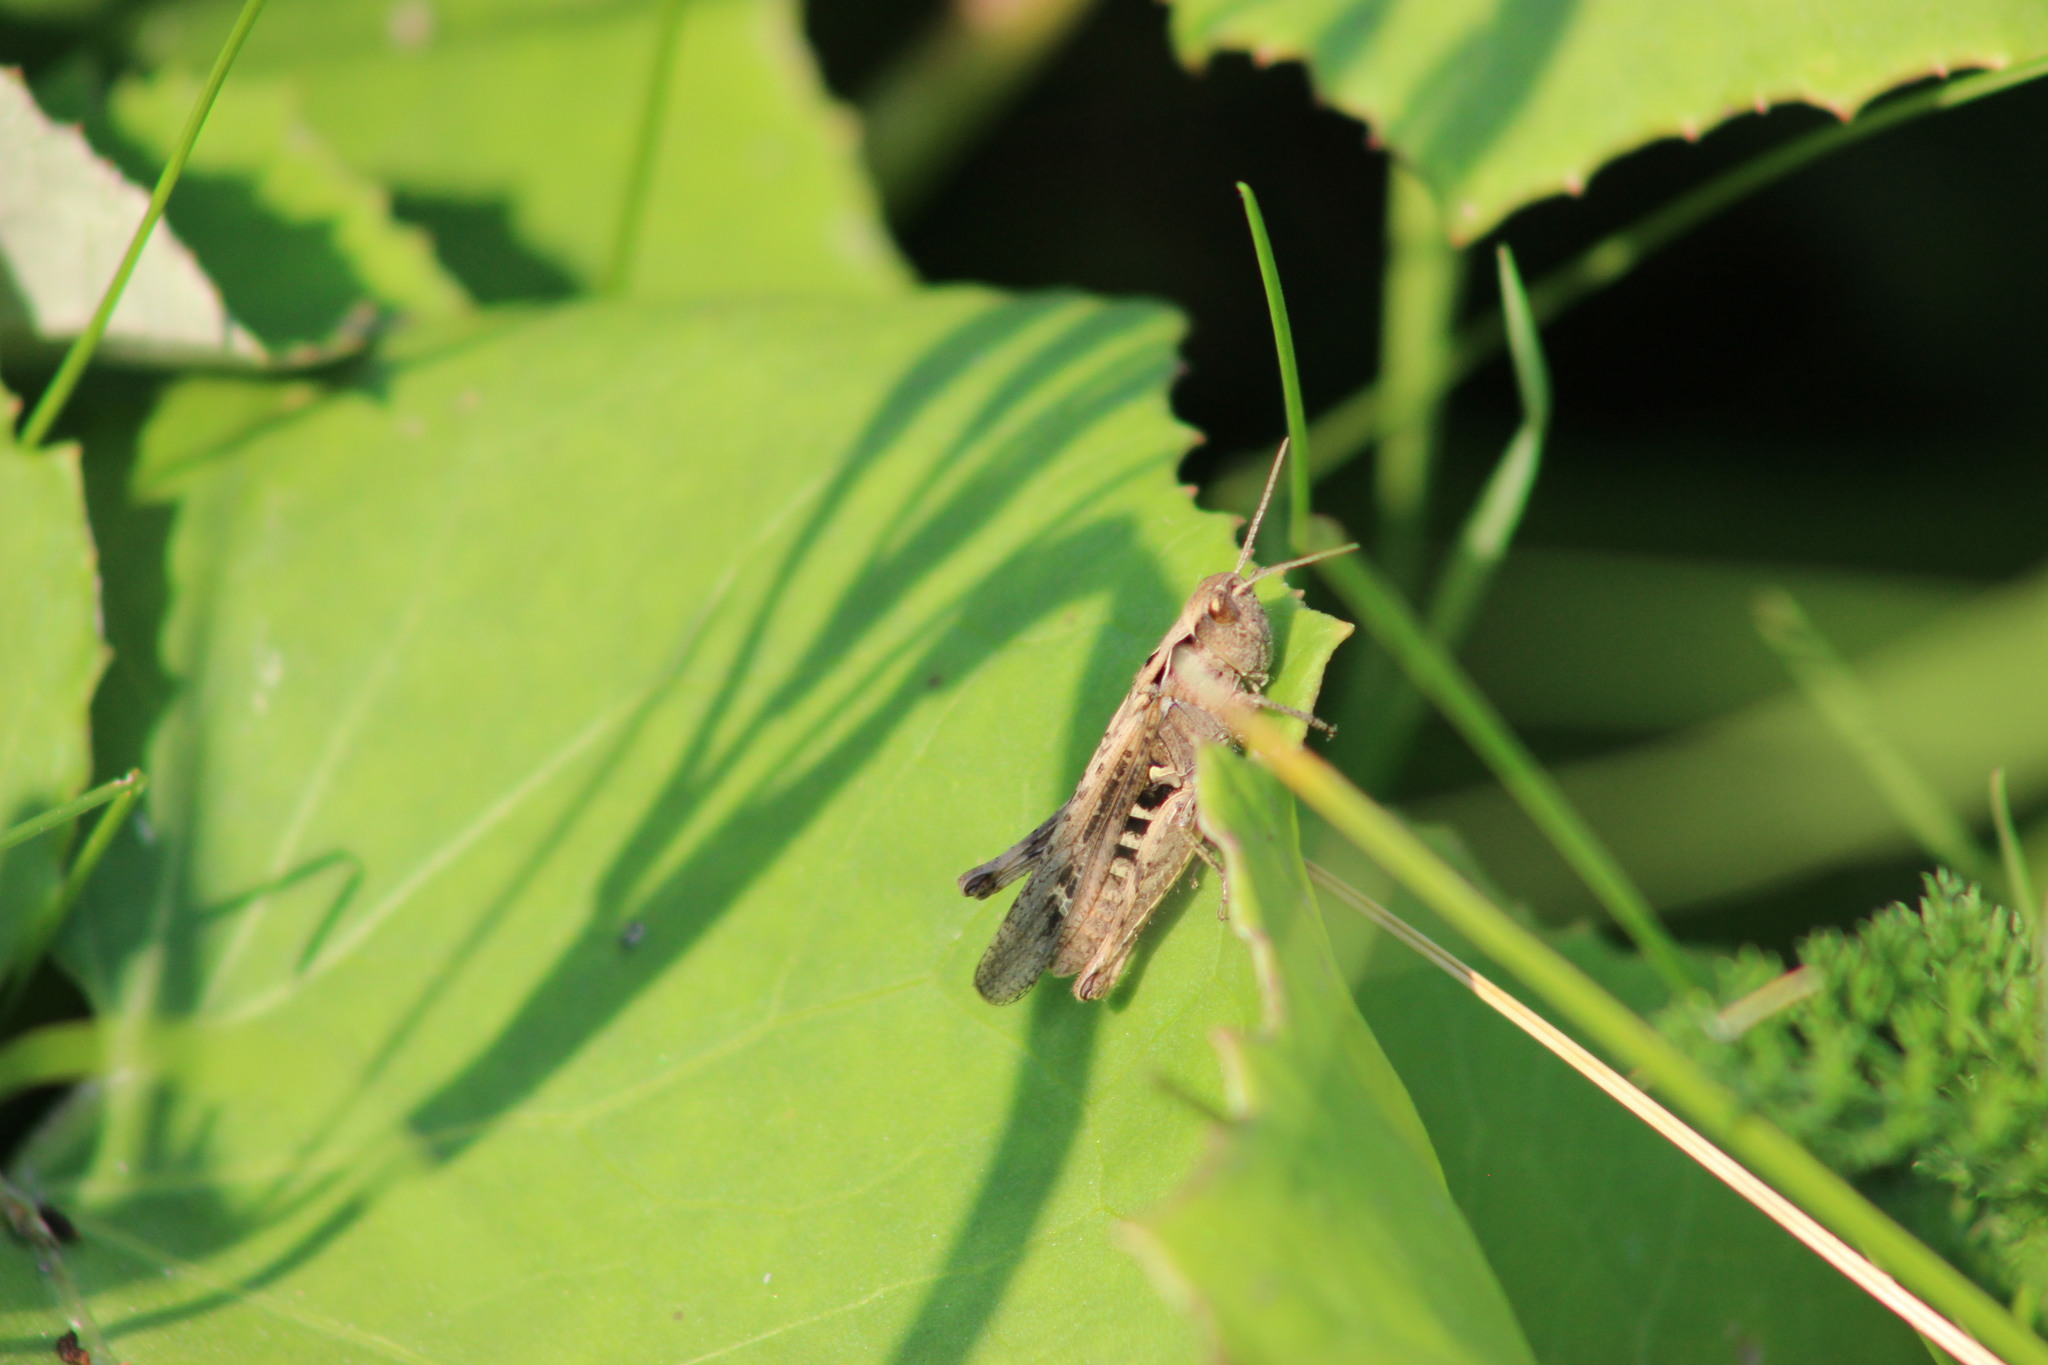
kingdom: Animalia
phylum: Arthropoda
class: Insecta
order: Orthoptera
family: Acrididae
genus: Glyptobothrus
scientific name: Glyptobothrus
